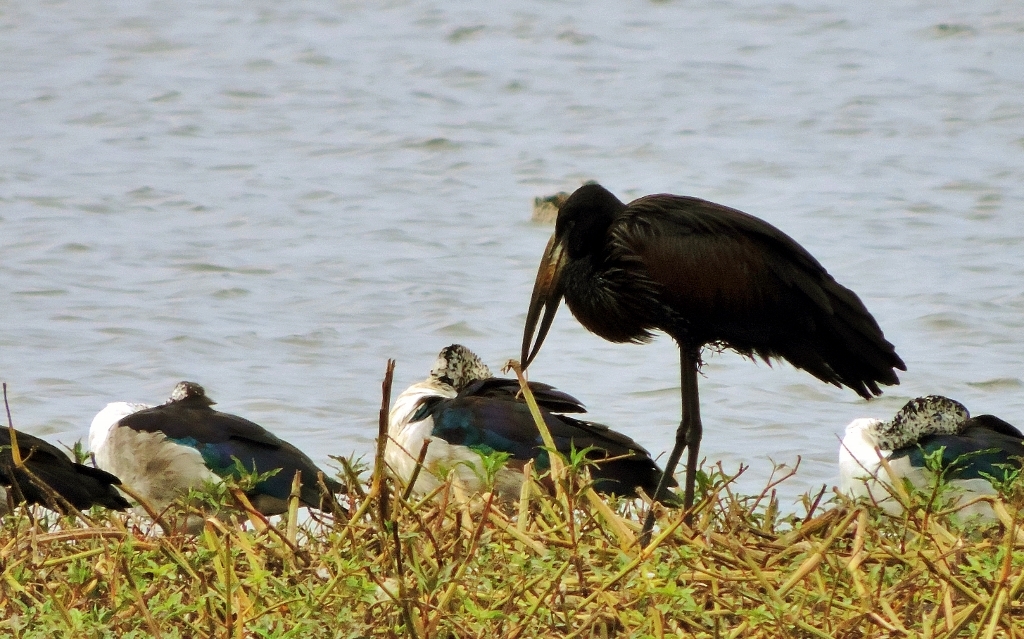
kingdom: Animalia
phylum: Chordata
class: Aves
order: Ciconiiformes
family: Ciconiidae
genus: Anastomus
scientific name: Anastomus lamelligerus
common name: African openbill
